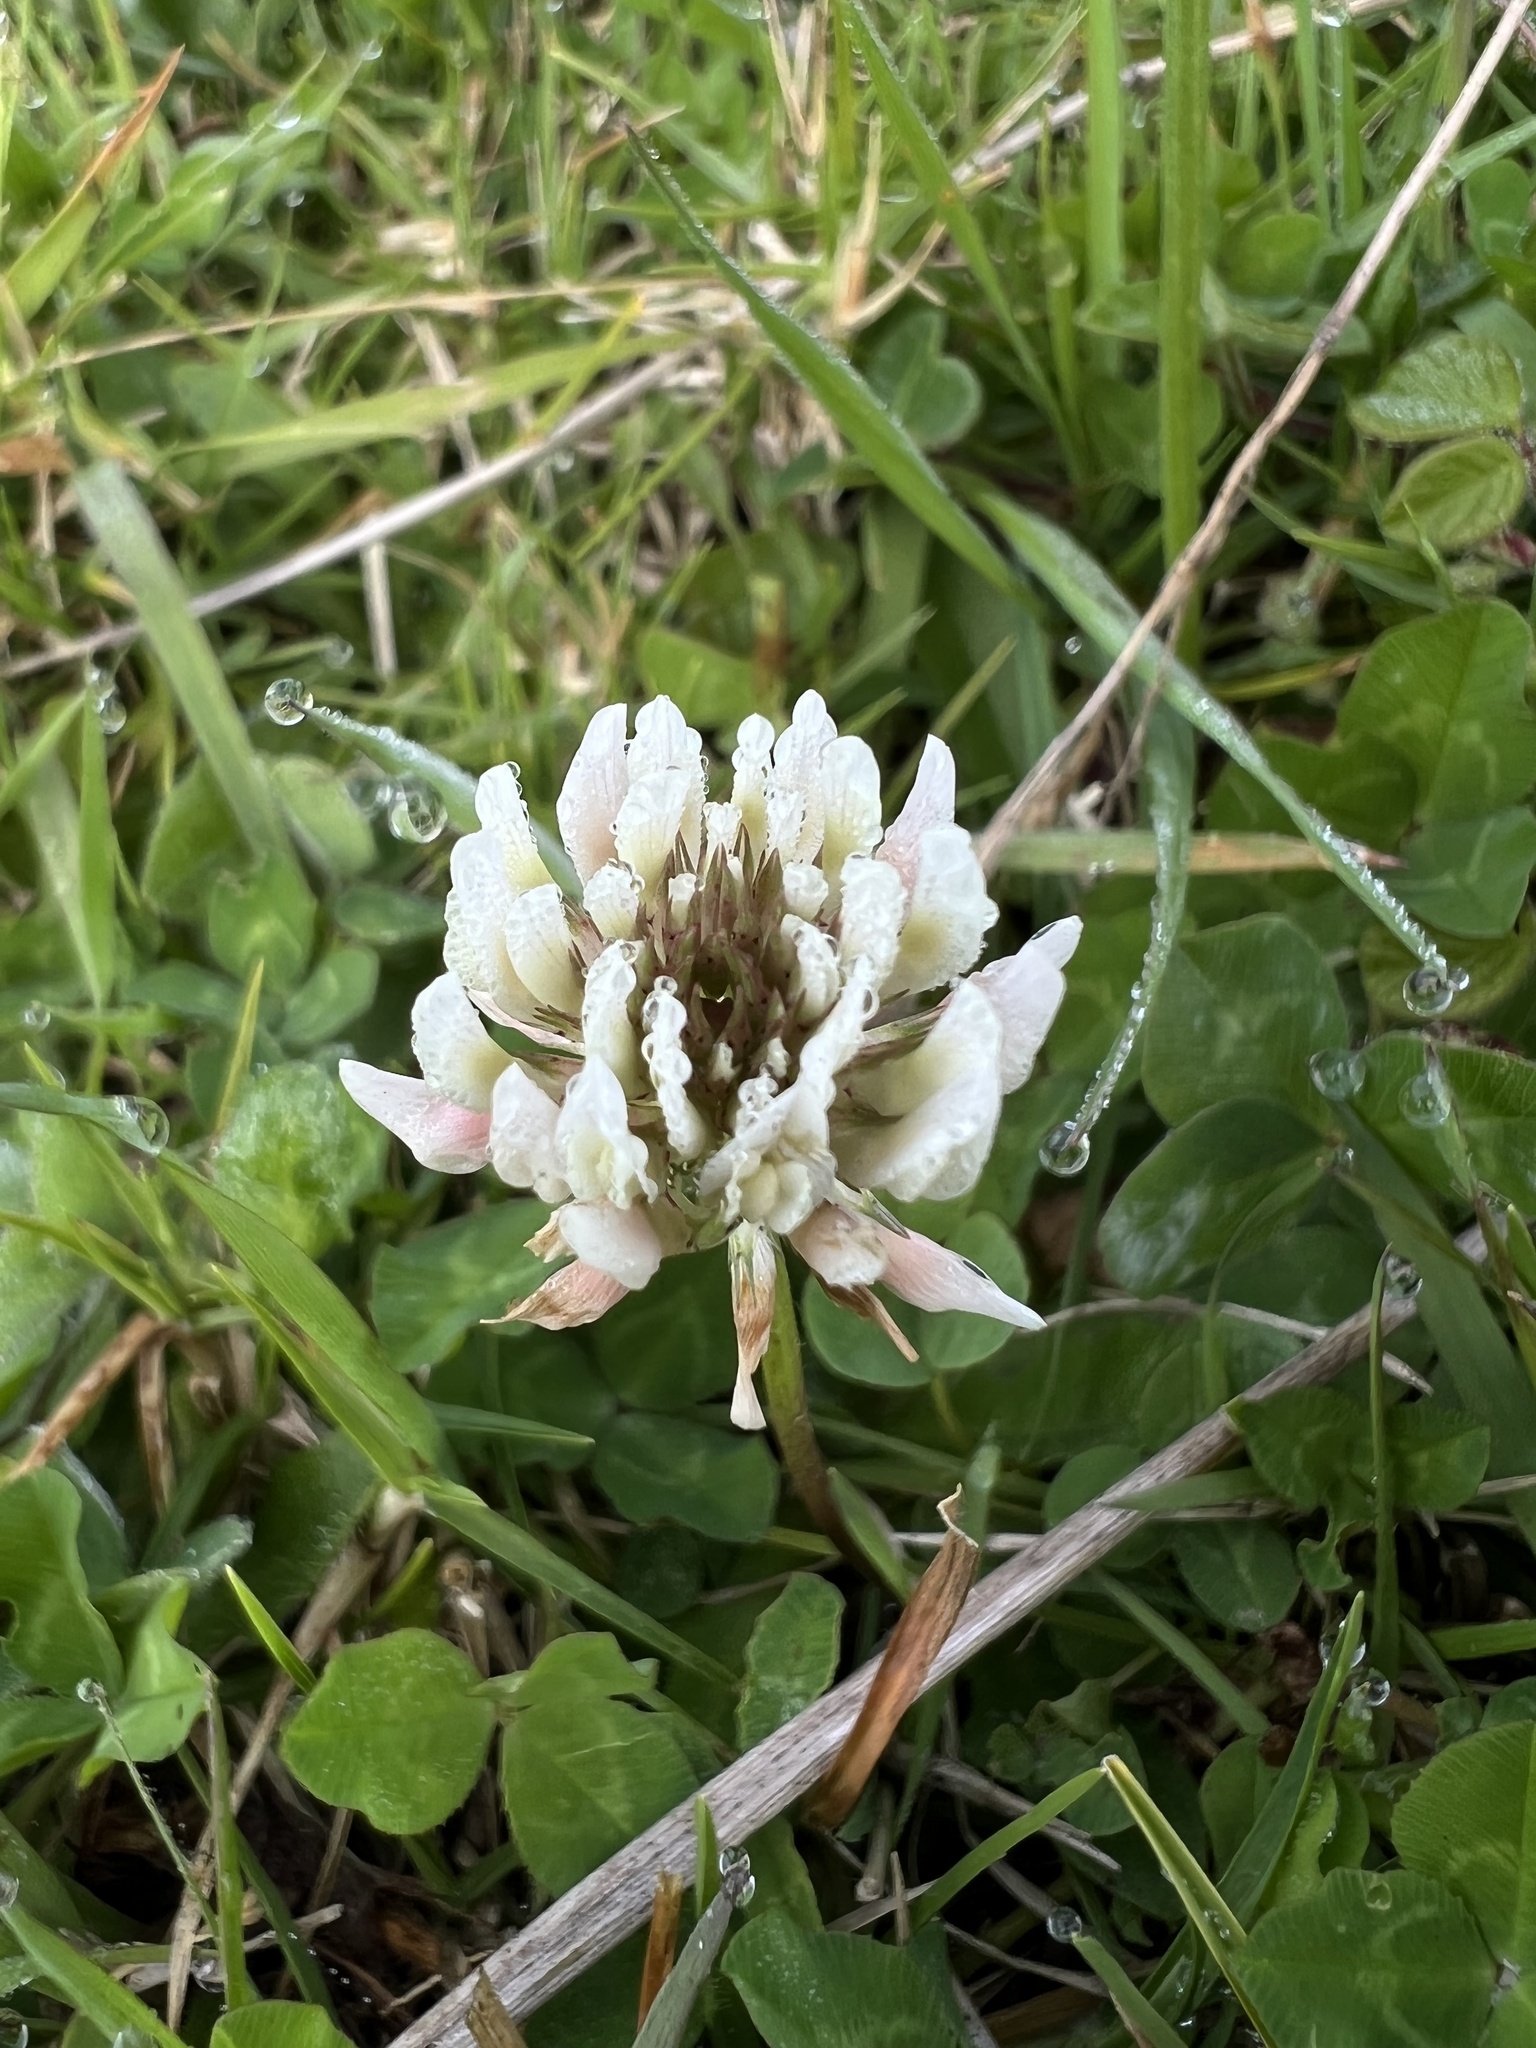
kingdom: Plantae
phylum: Tracheophyta
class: Magnoliopsida
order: Fabales
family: Fabaceae
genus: Trifolium
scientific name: Trifolium repens
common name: White clover
